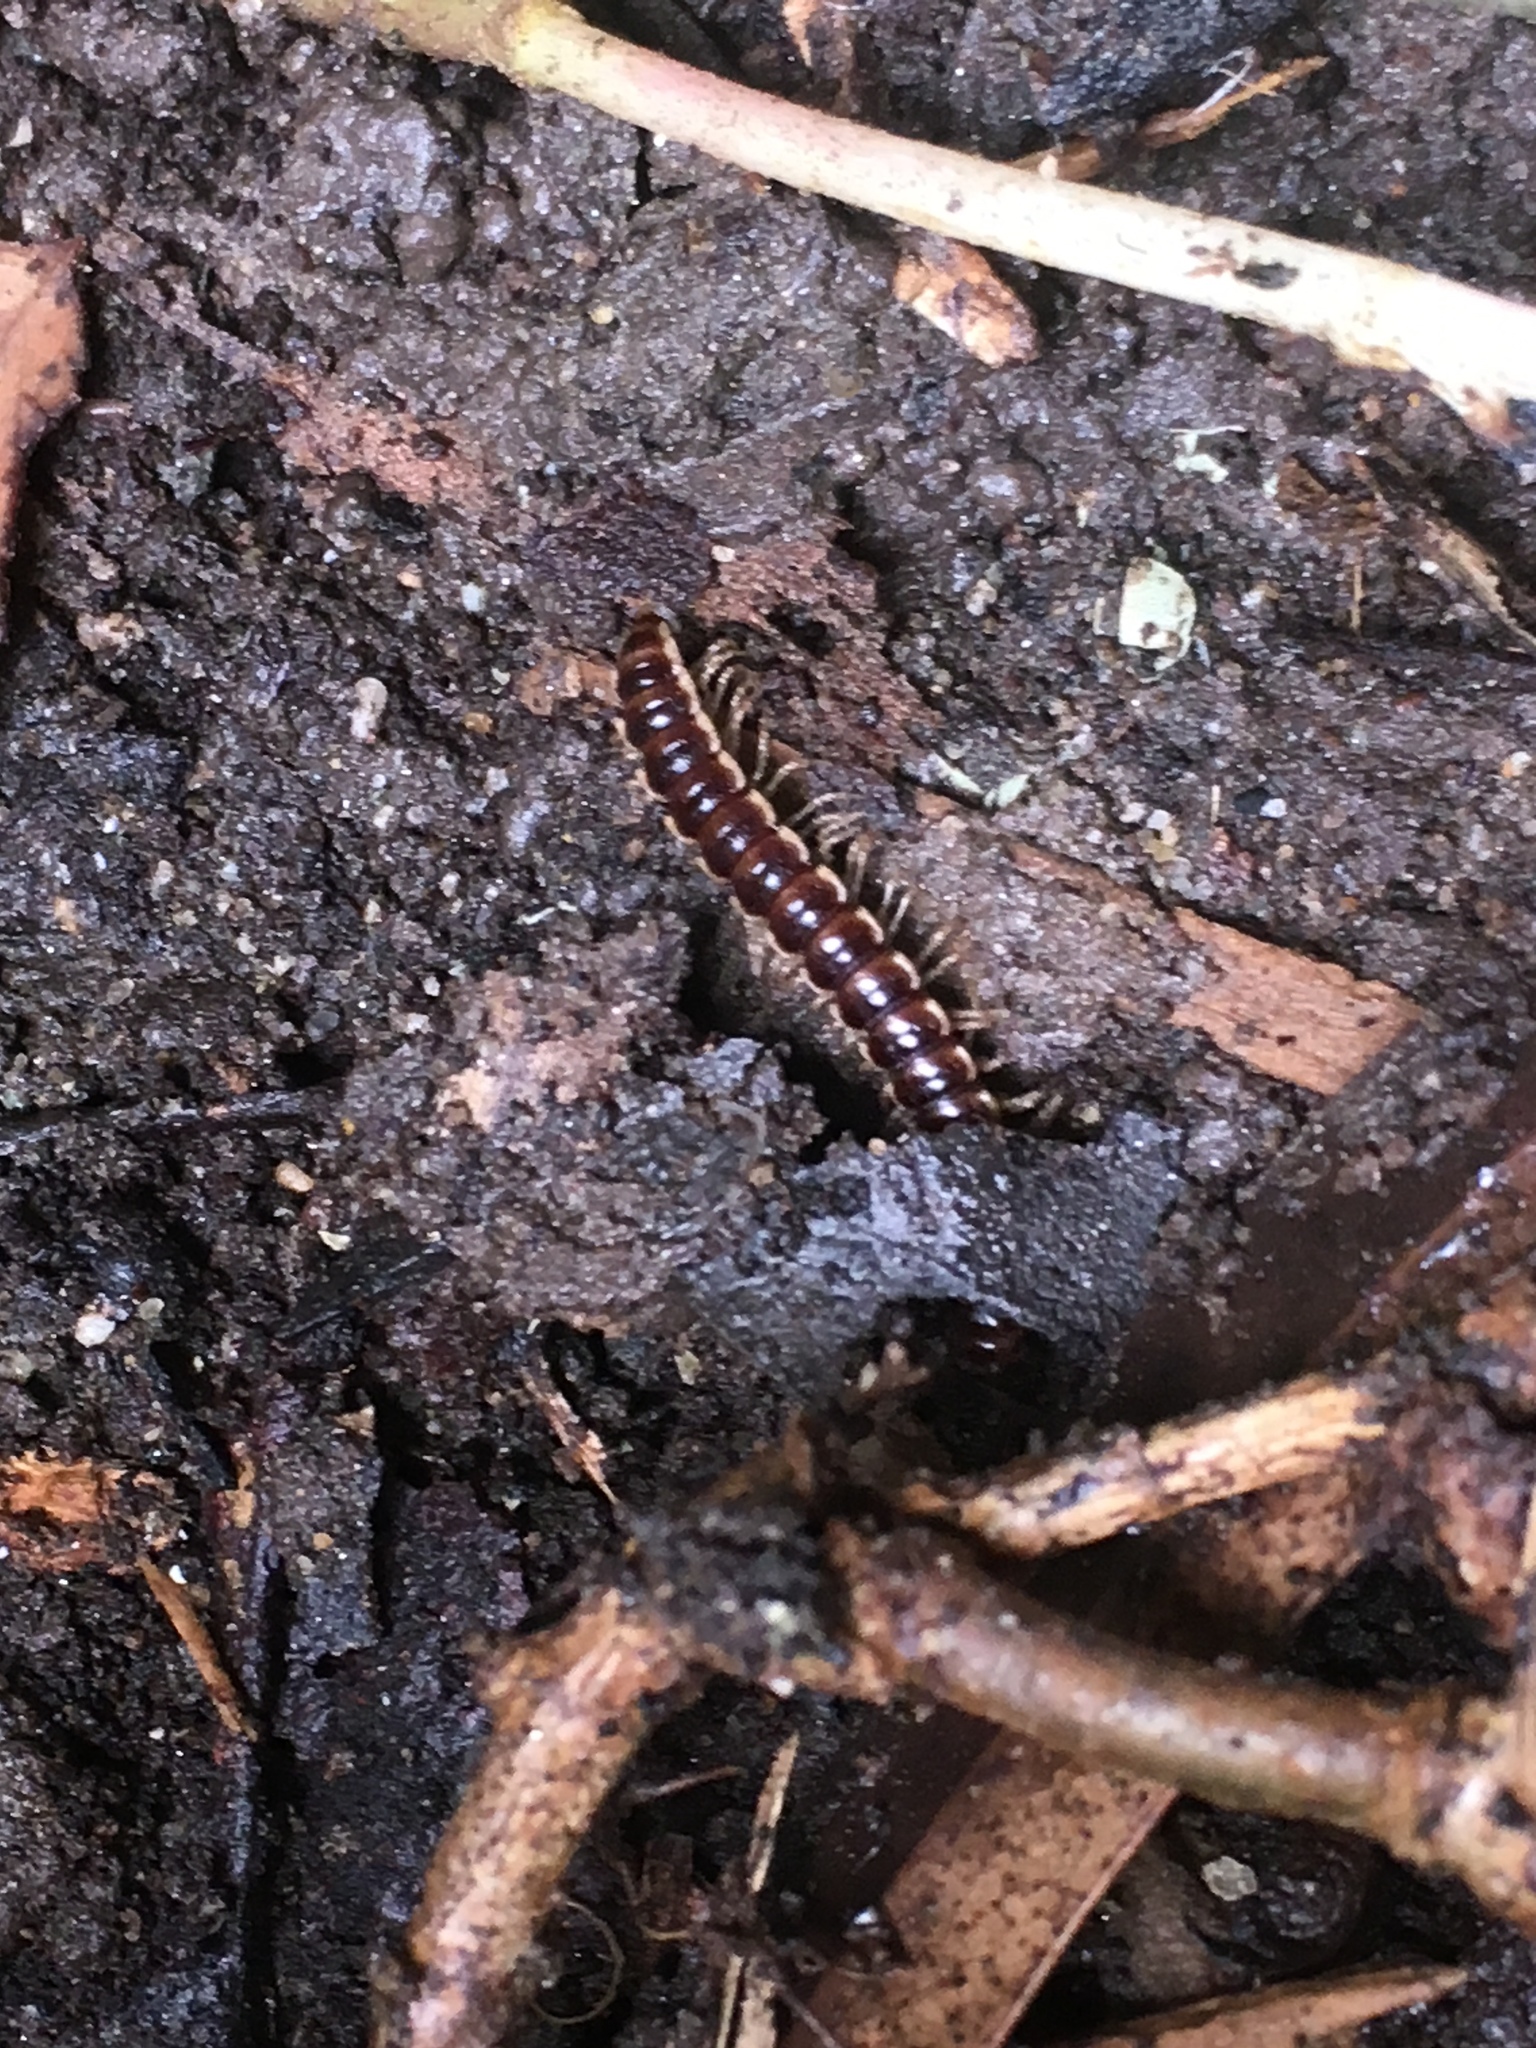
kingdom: Animalia
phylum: Arthropoda
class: Diplopoda
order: Polydesmida
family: Paradoxosomatidae
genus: Oxidus
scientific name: Oxidus gracilis
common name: Greenhouse millipede
